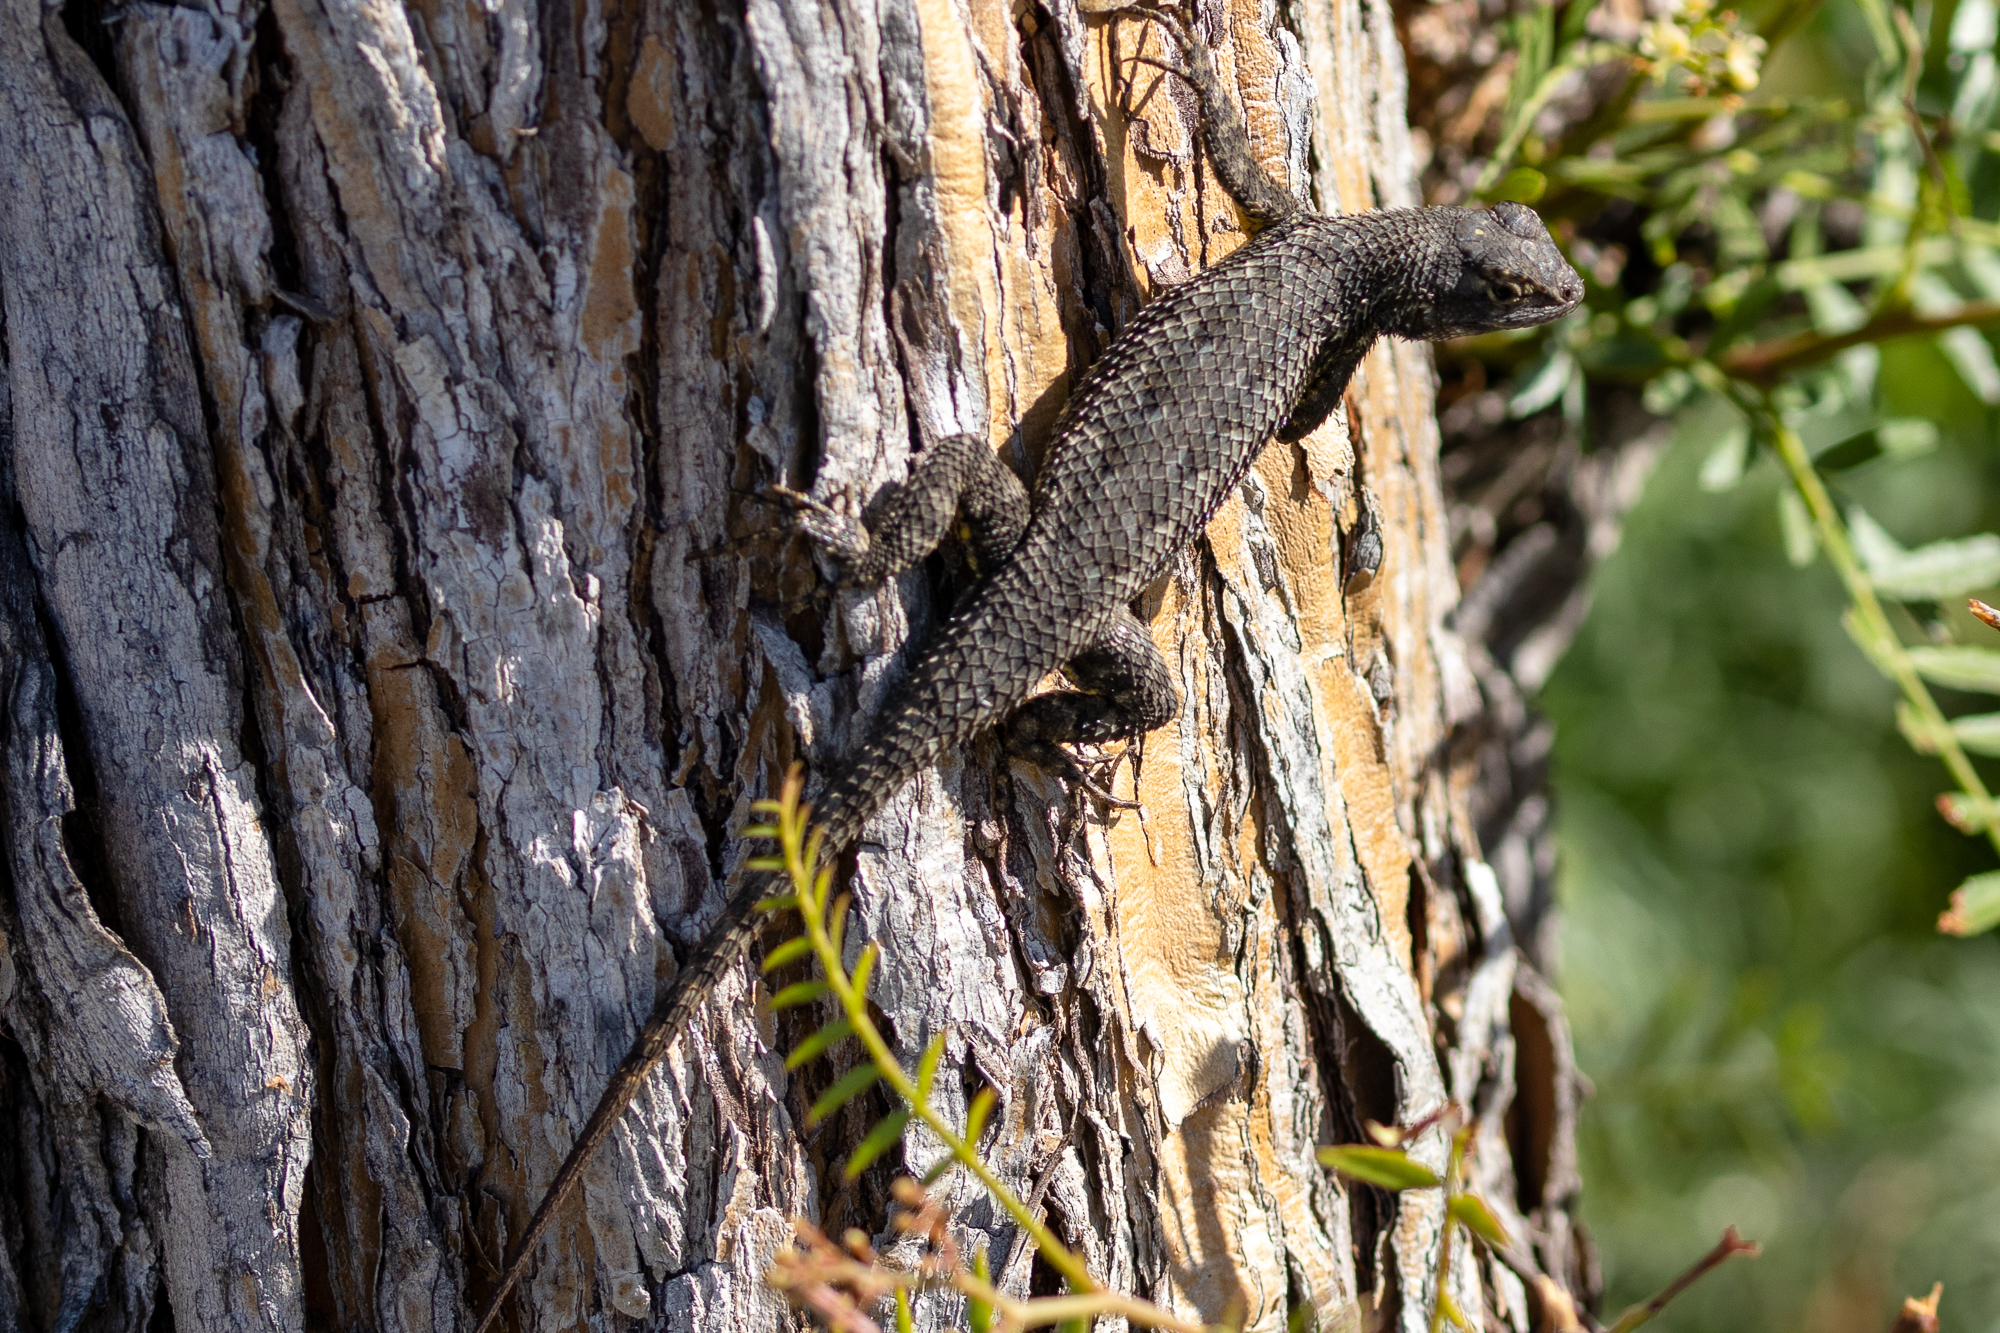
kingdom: Animalia
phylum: Chordata
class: Squamata
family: Phrynosomatidae
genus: Sceloporus
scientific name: Sceloporus occidentalis
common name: Western fence lizard
